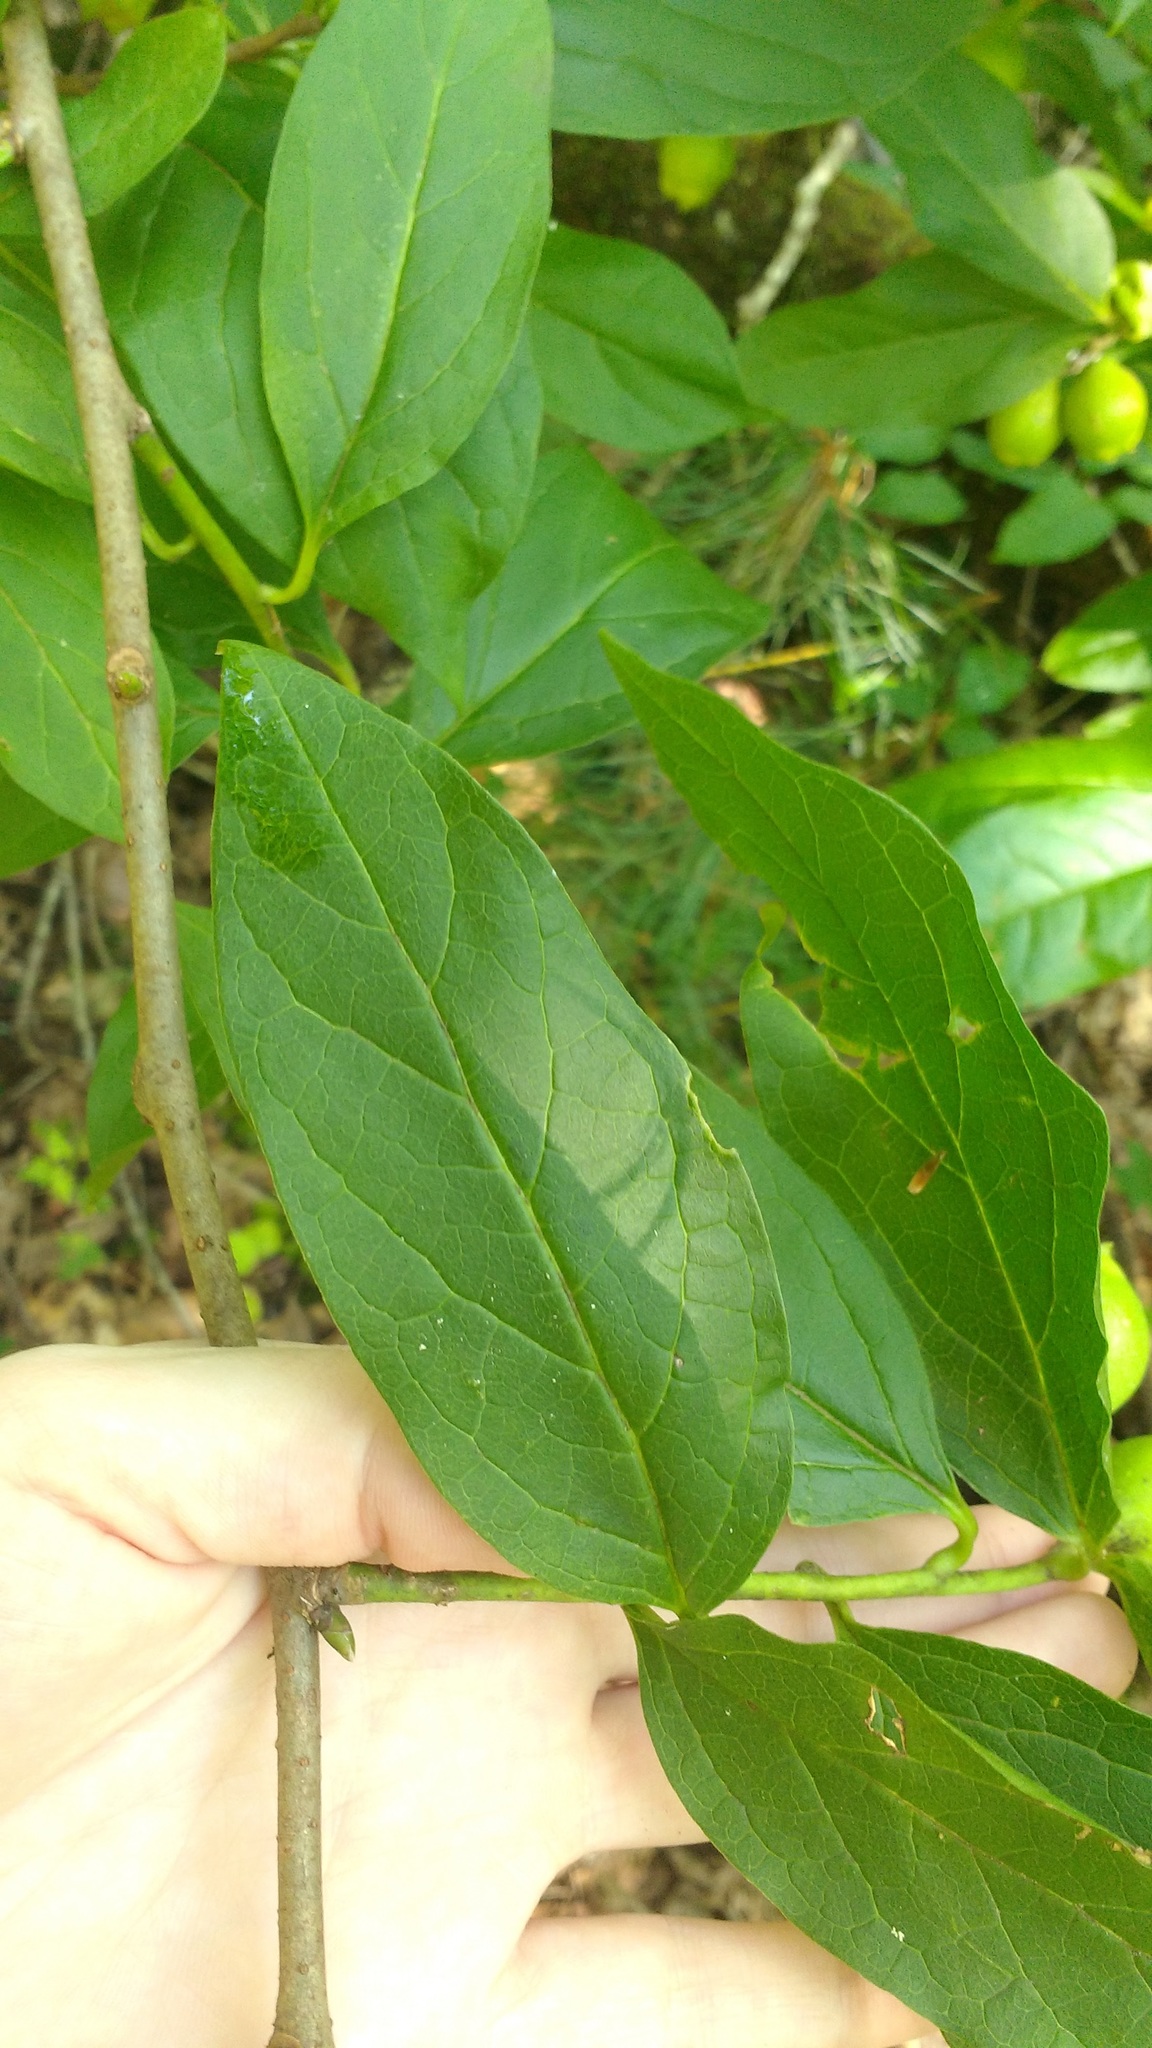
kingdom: Plantae
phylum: Tracheophyta
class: Magnoliopsida
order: Santalales
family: Cervantesiaceae
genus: Pyrularia
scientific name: Pyrularia pubera
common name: Oilnut
